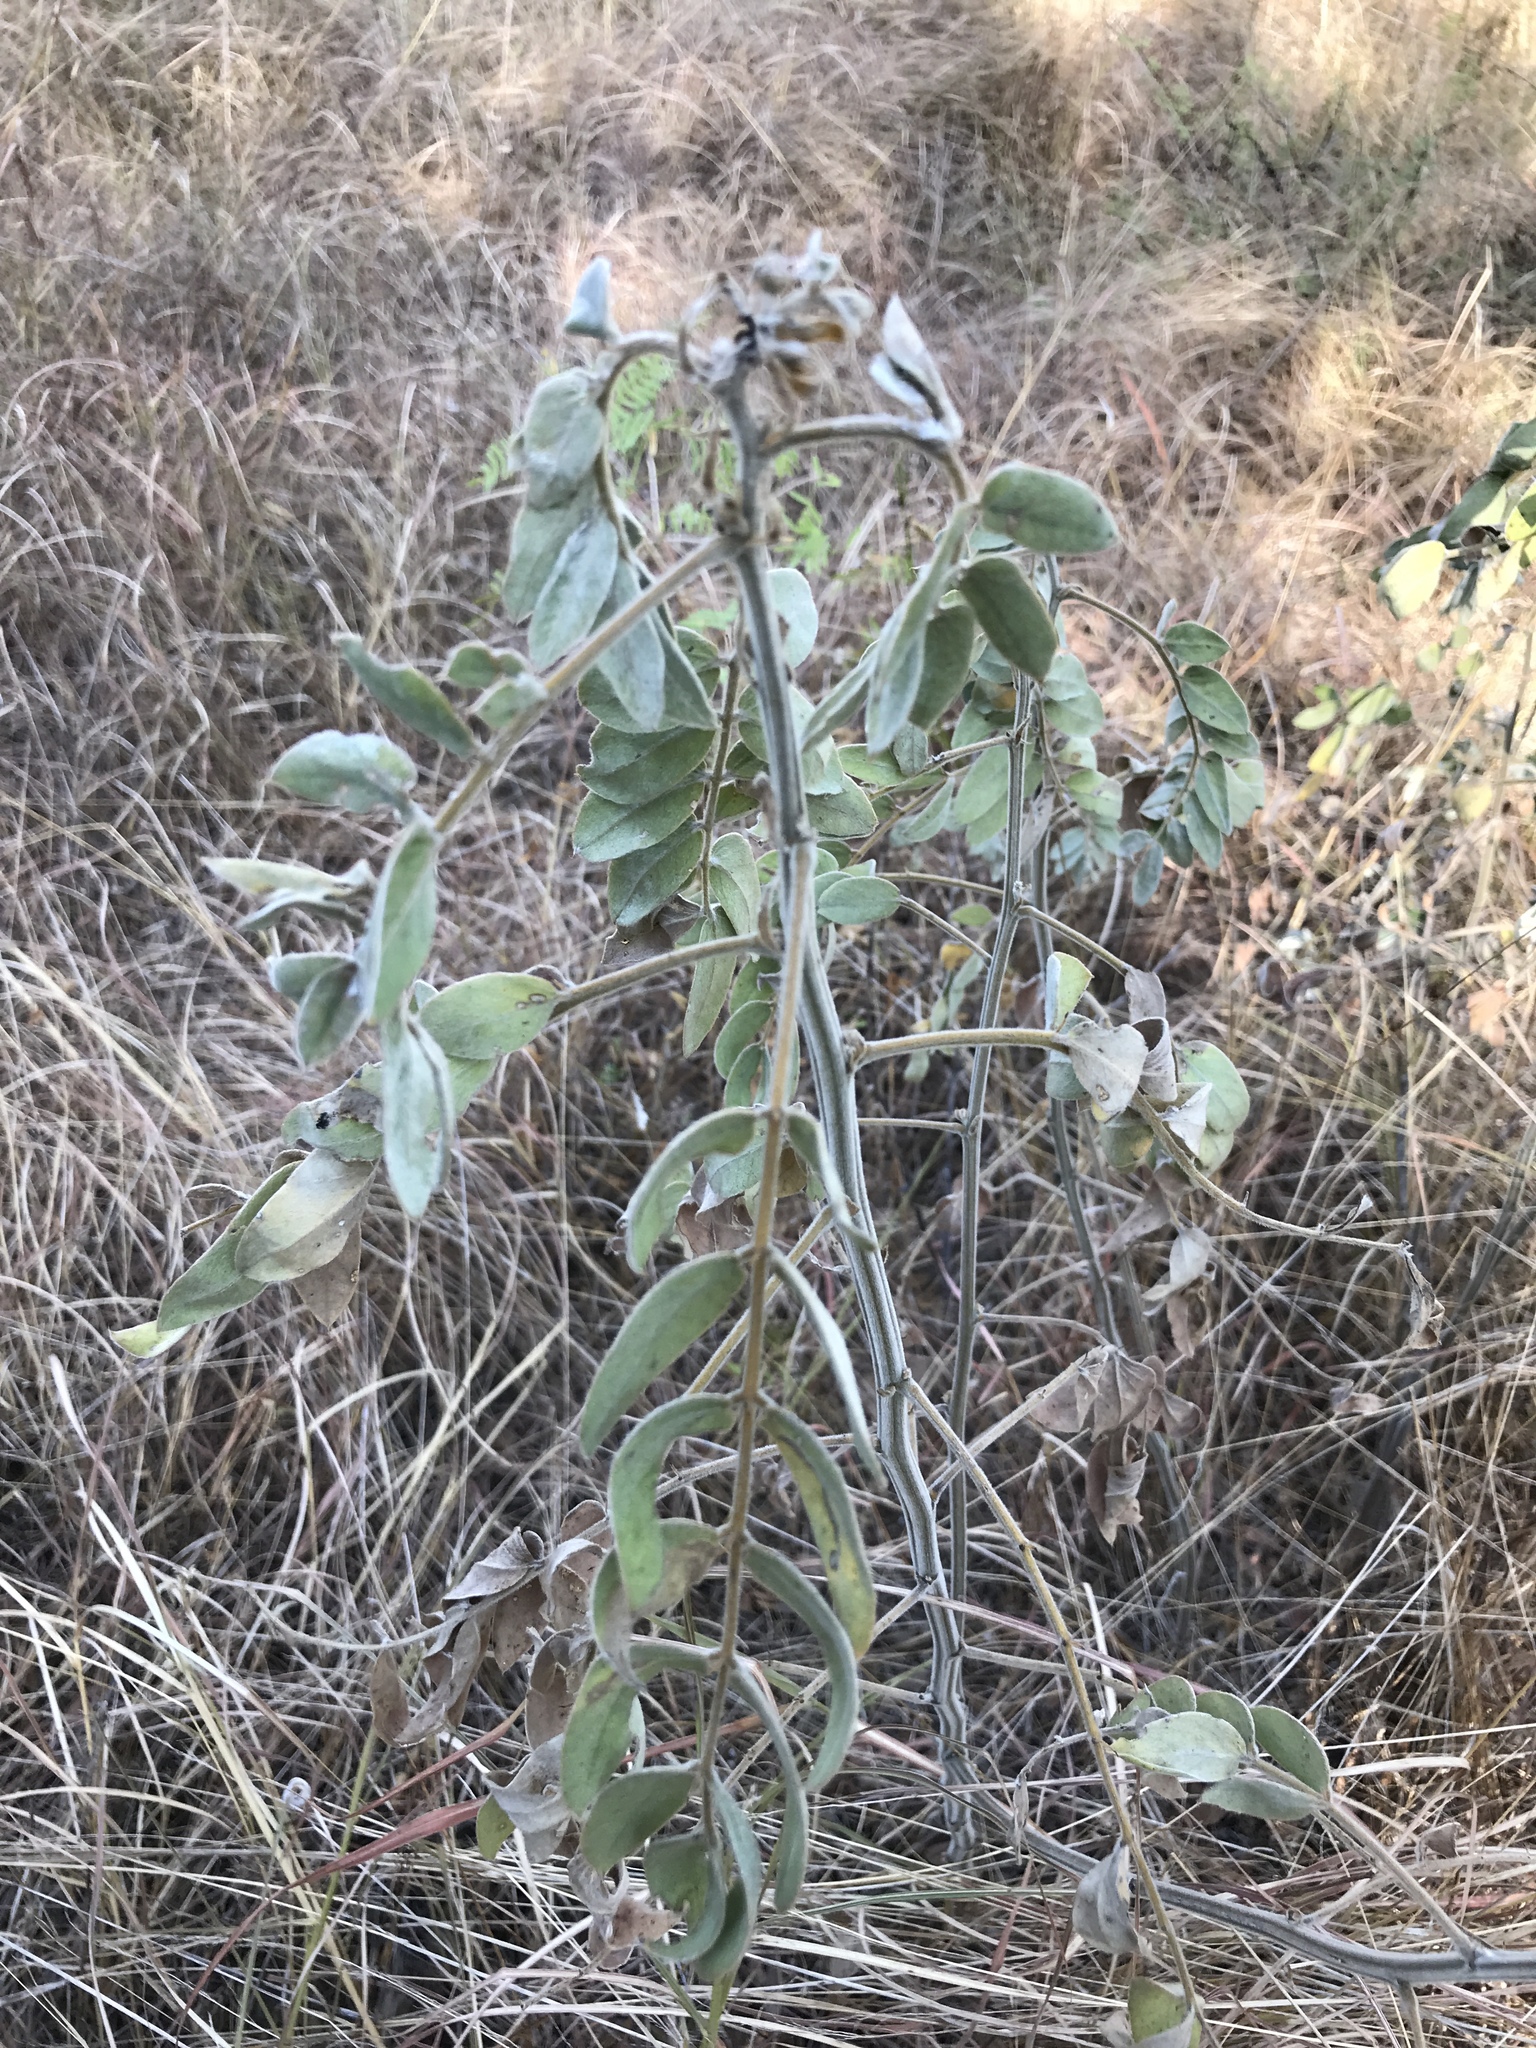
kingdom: Plantae
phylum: Tracheophyta
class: Magnoliopsida
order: Fabales
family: Fabaceae
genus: Senna
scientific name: Senna lindheimeriana
